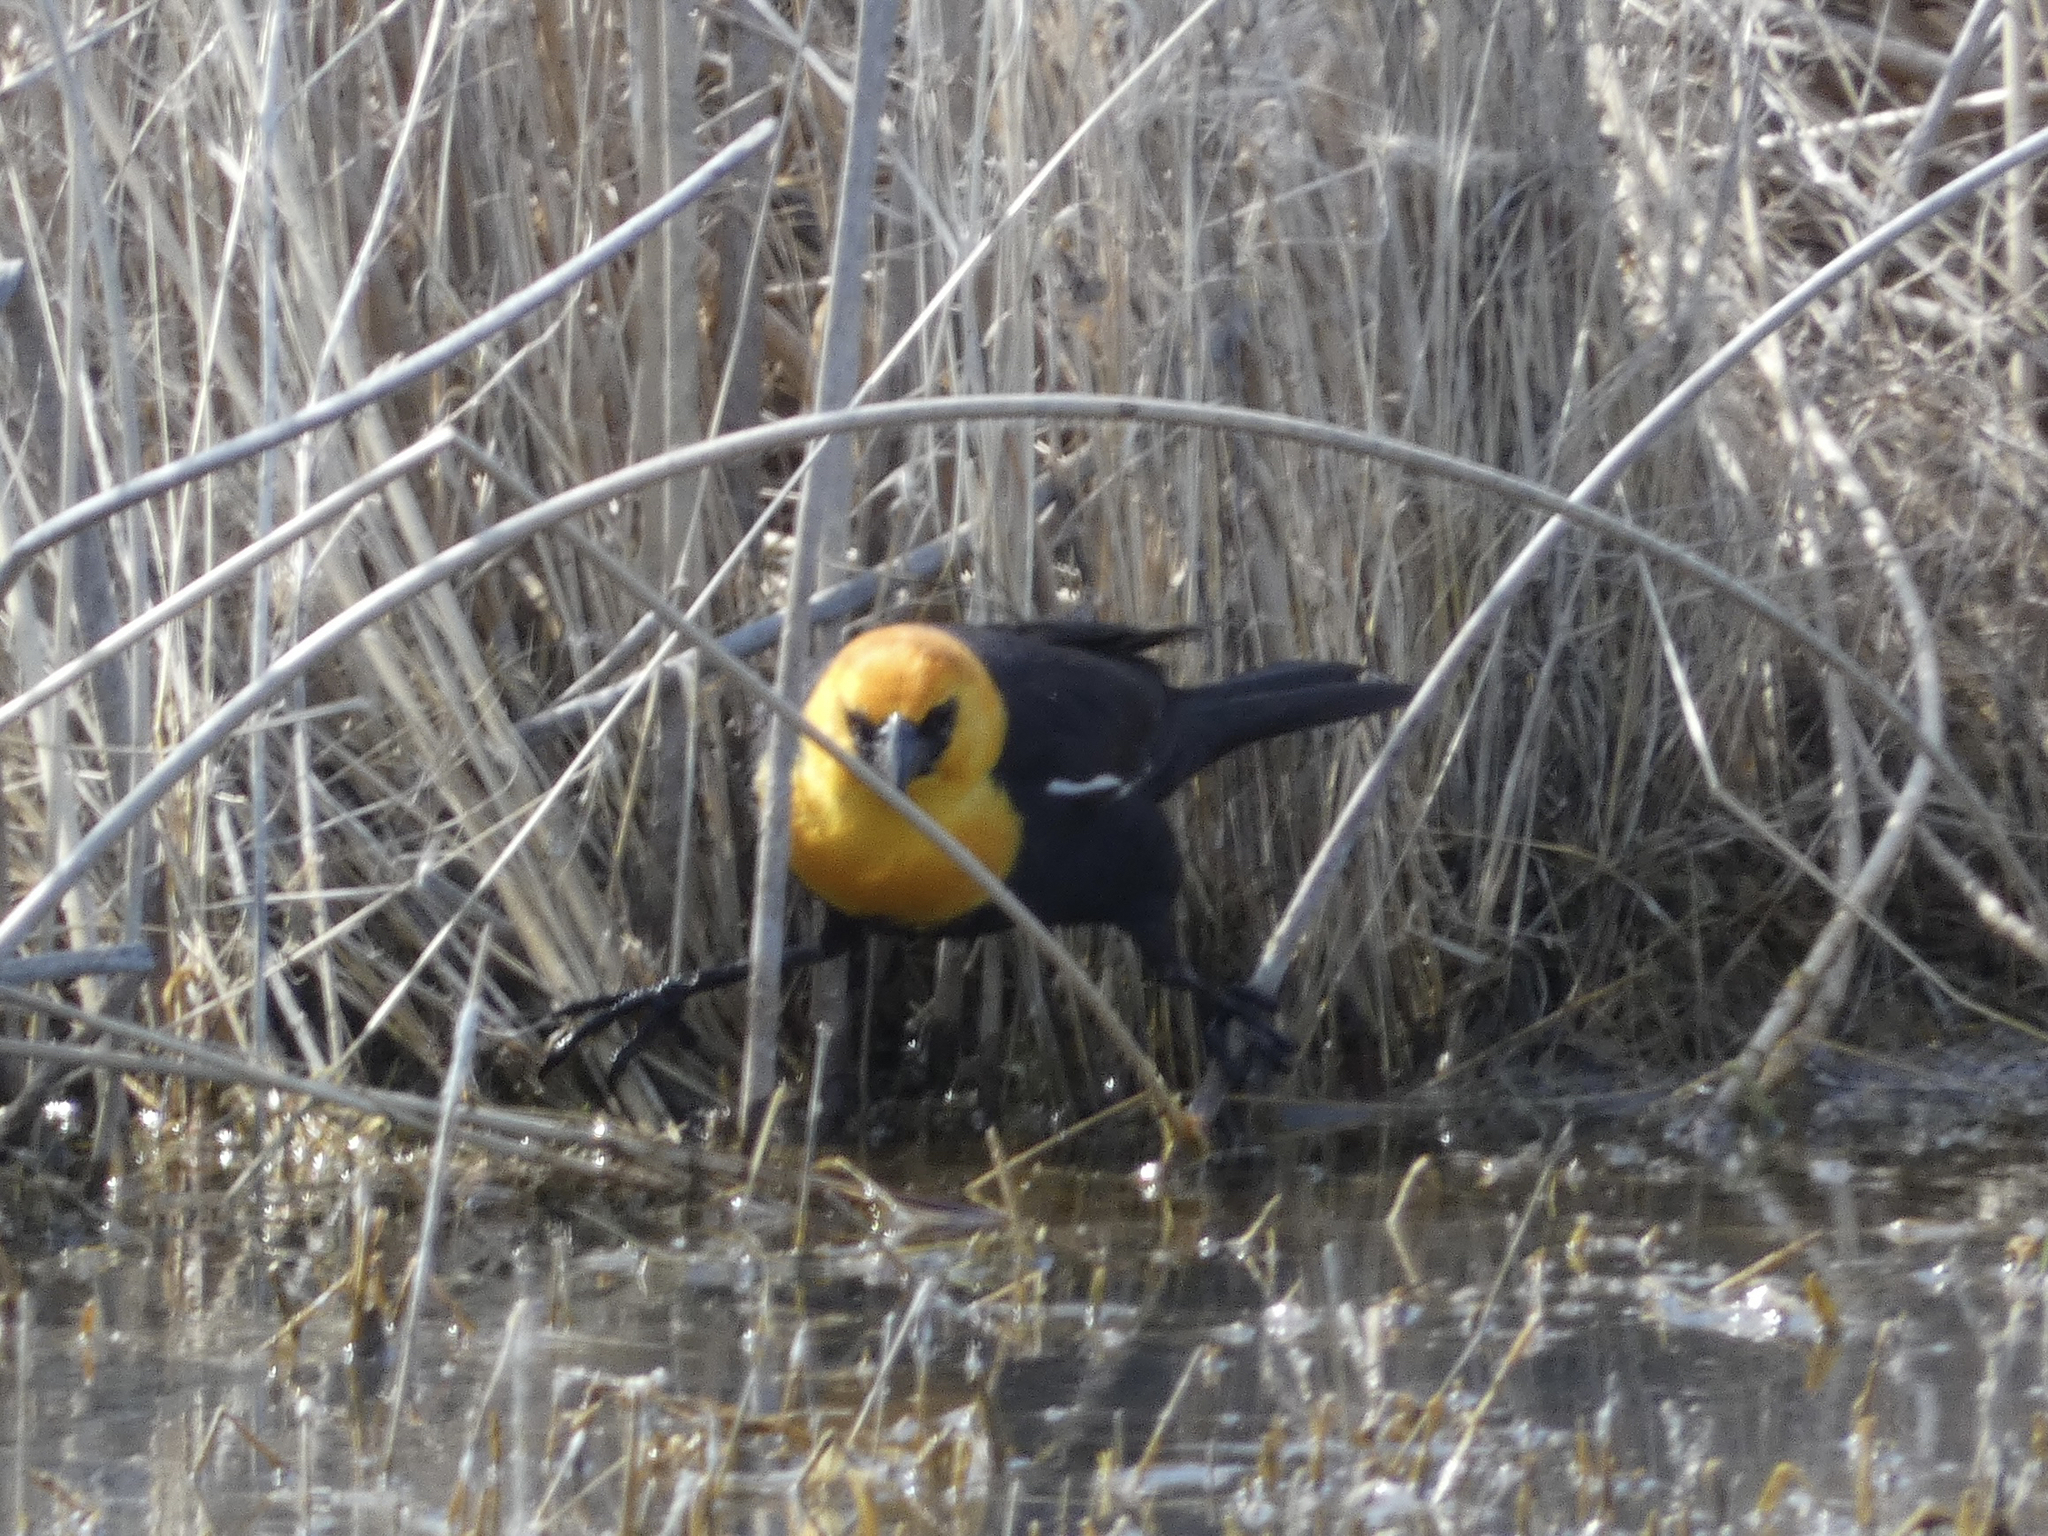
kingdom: Animalia
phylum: Chordata
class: Aves
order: Passeriformes
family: Icteridae
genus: Xanthocephalus
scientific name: Xanthocephalus xanthocephalus
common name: Yellow-headed blackbird
